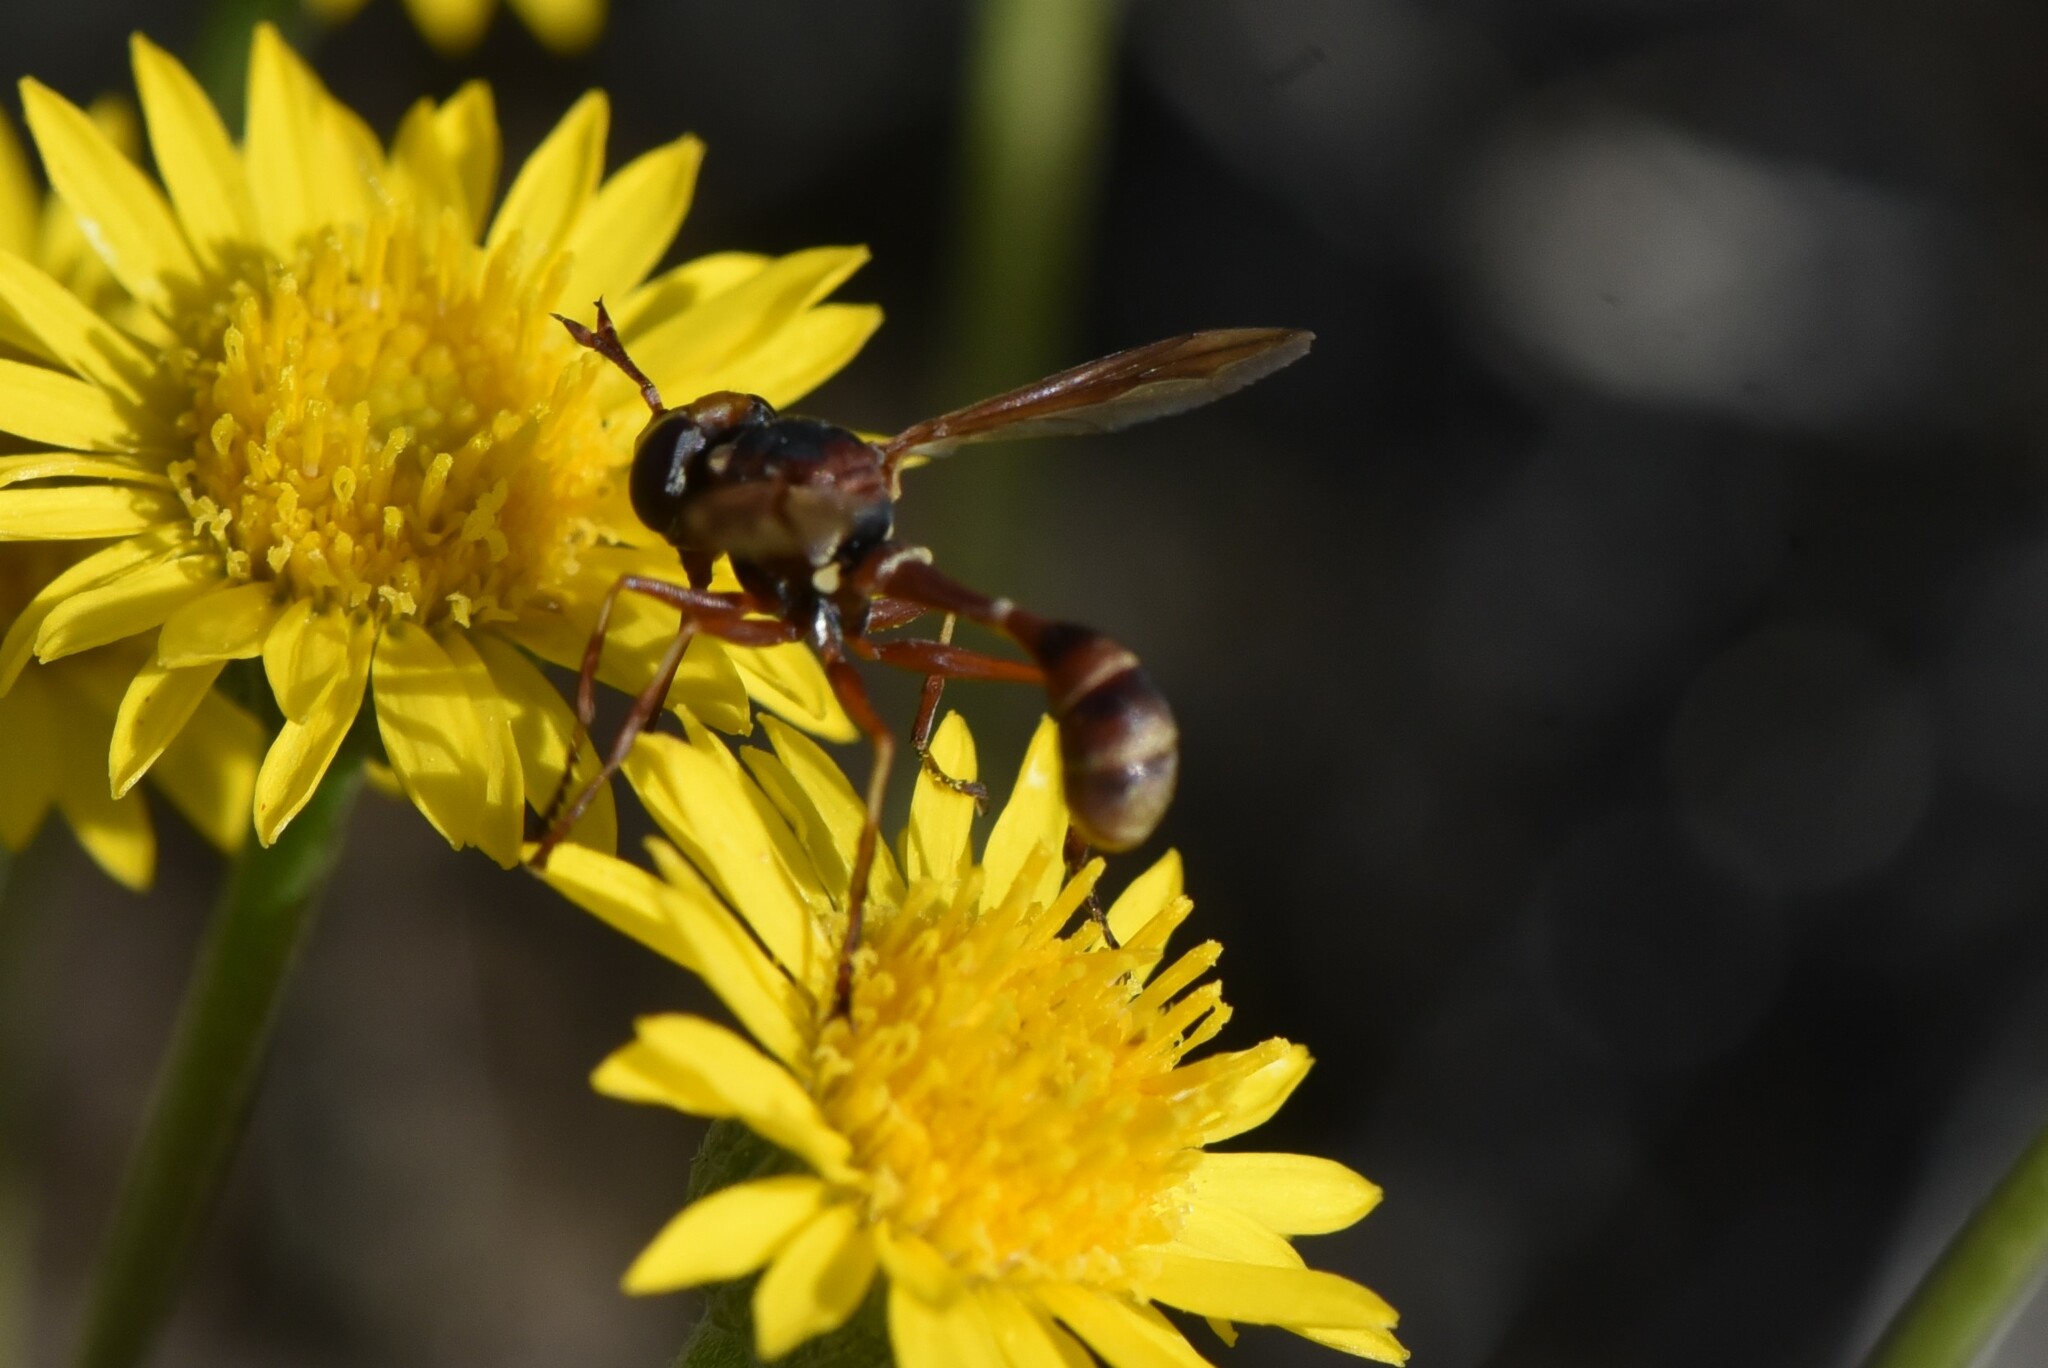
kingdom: Animalia
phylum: Arthropoda
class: Insecta
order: Diptera
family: Conopidae
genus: Physocephala
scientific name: Physocephala texana
